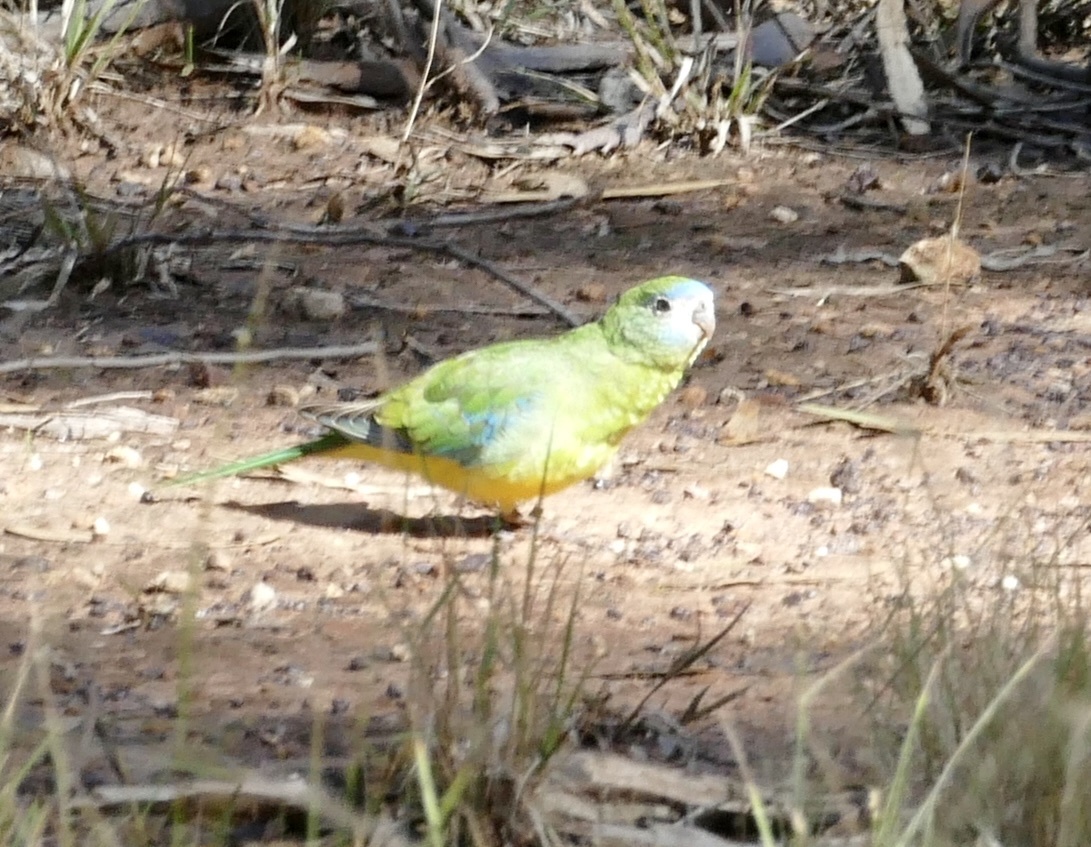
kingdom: Animalia
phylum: Chordata
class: Aves
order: Psittaciformes
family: Psittacidae
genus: Neophema
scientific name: Neophema pulchella
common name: Turquoise parrot
